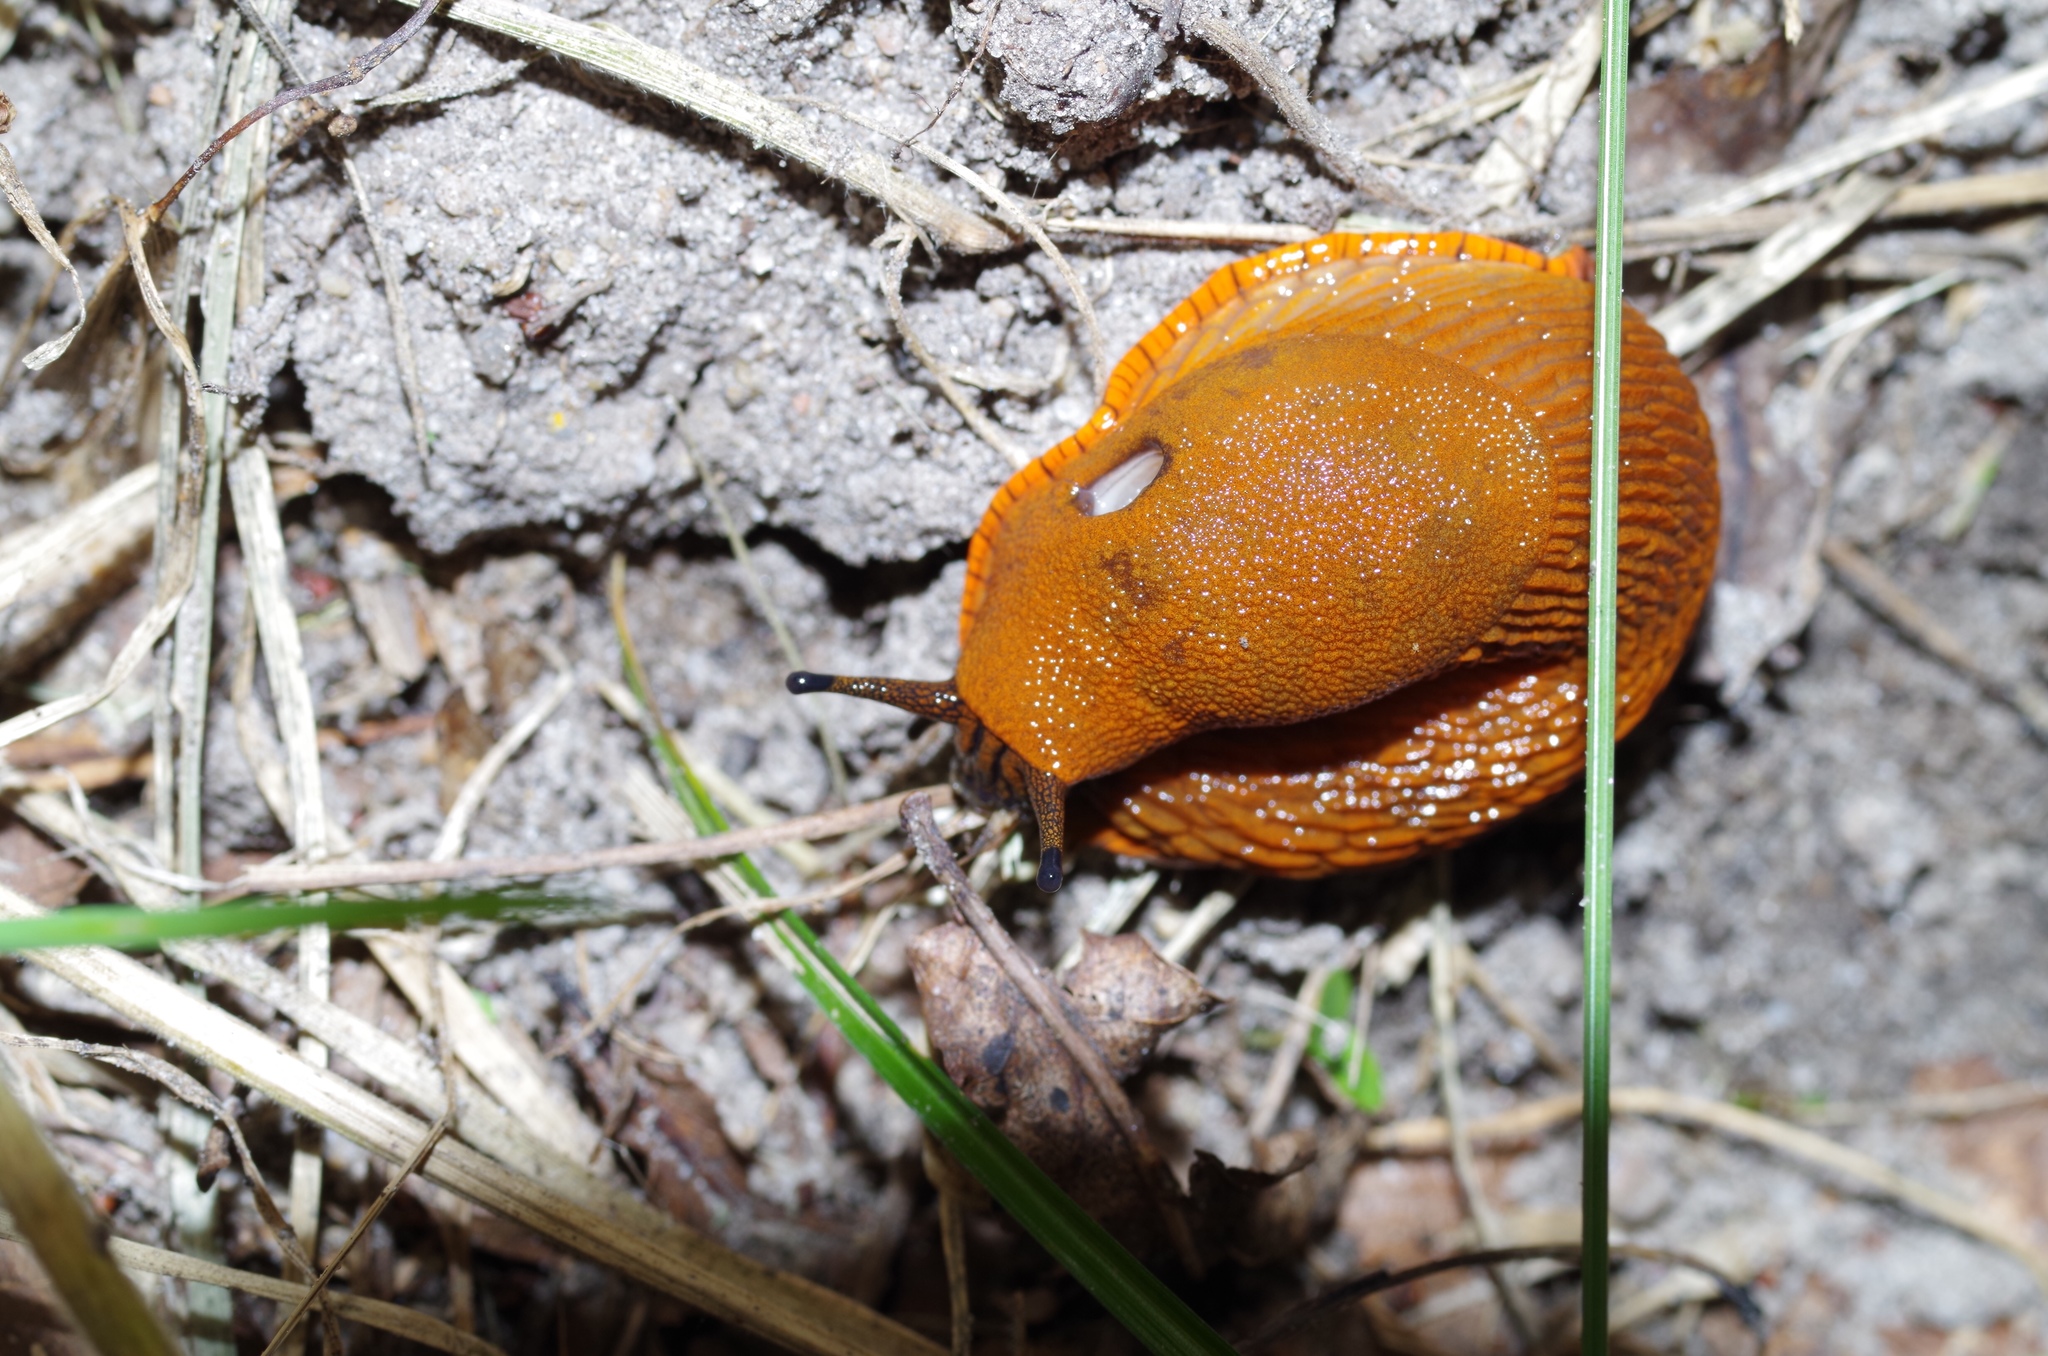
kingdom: Animalia
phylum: Mollusca
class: Gastropoda
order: Stylommatophora
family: Arionidae
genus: Arion
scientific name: Arion rufus
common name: Chocolate arion
